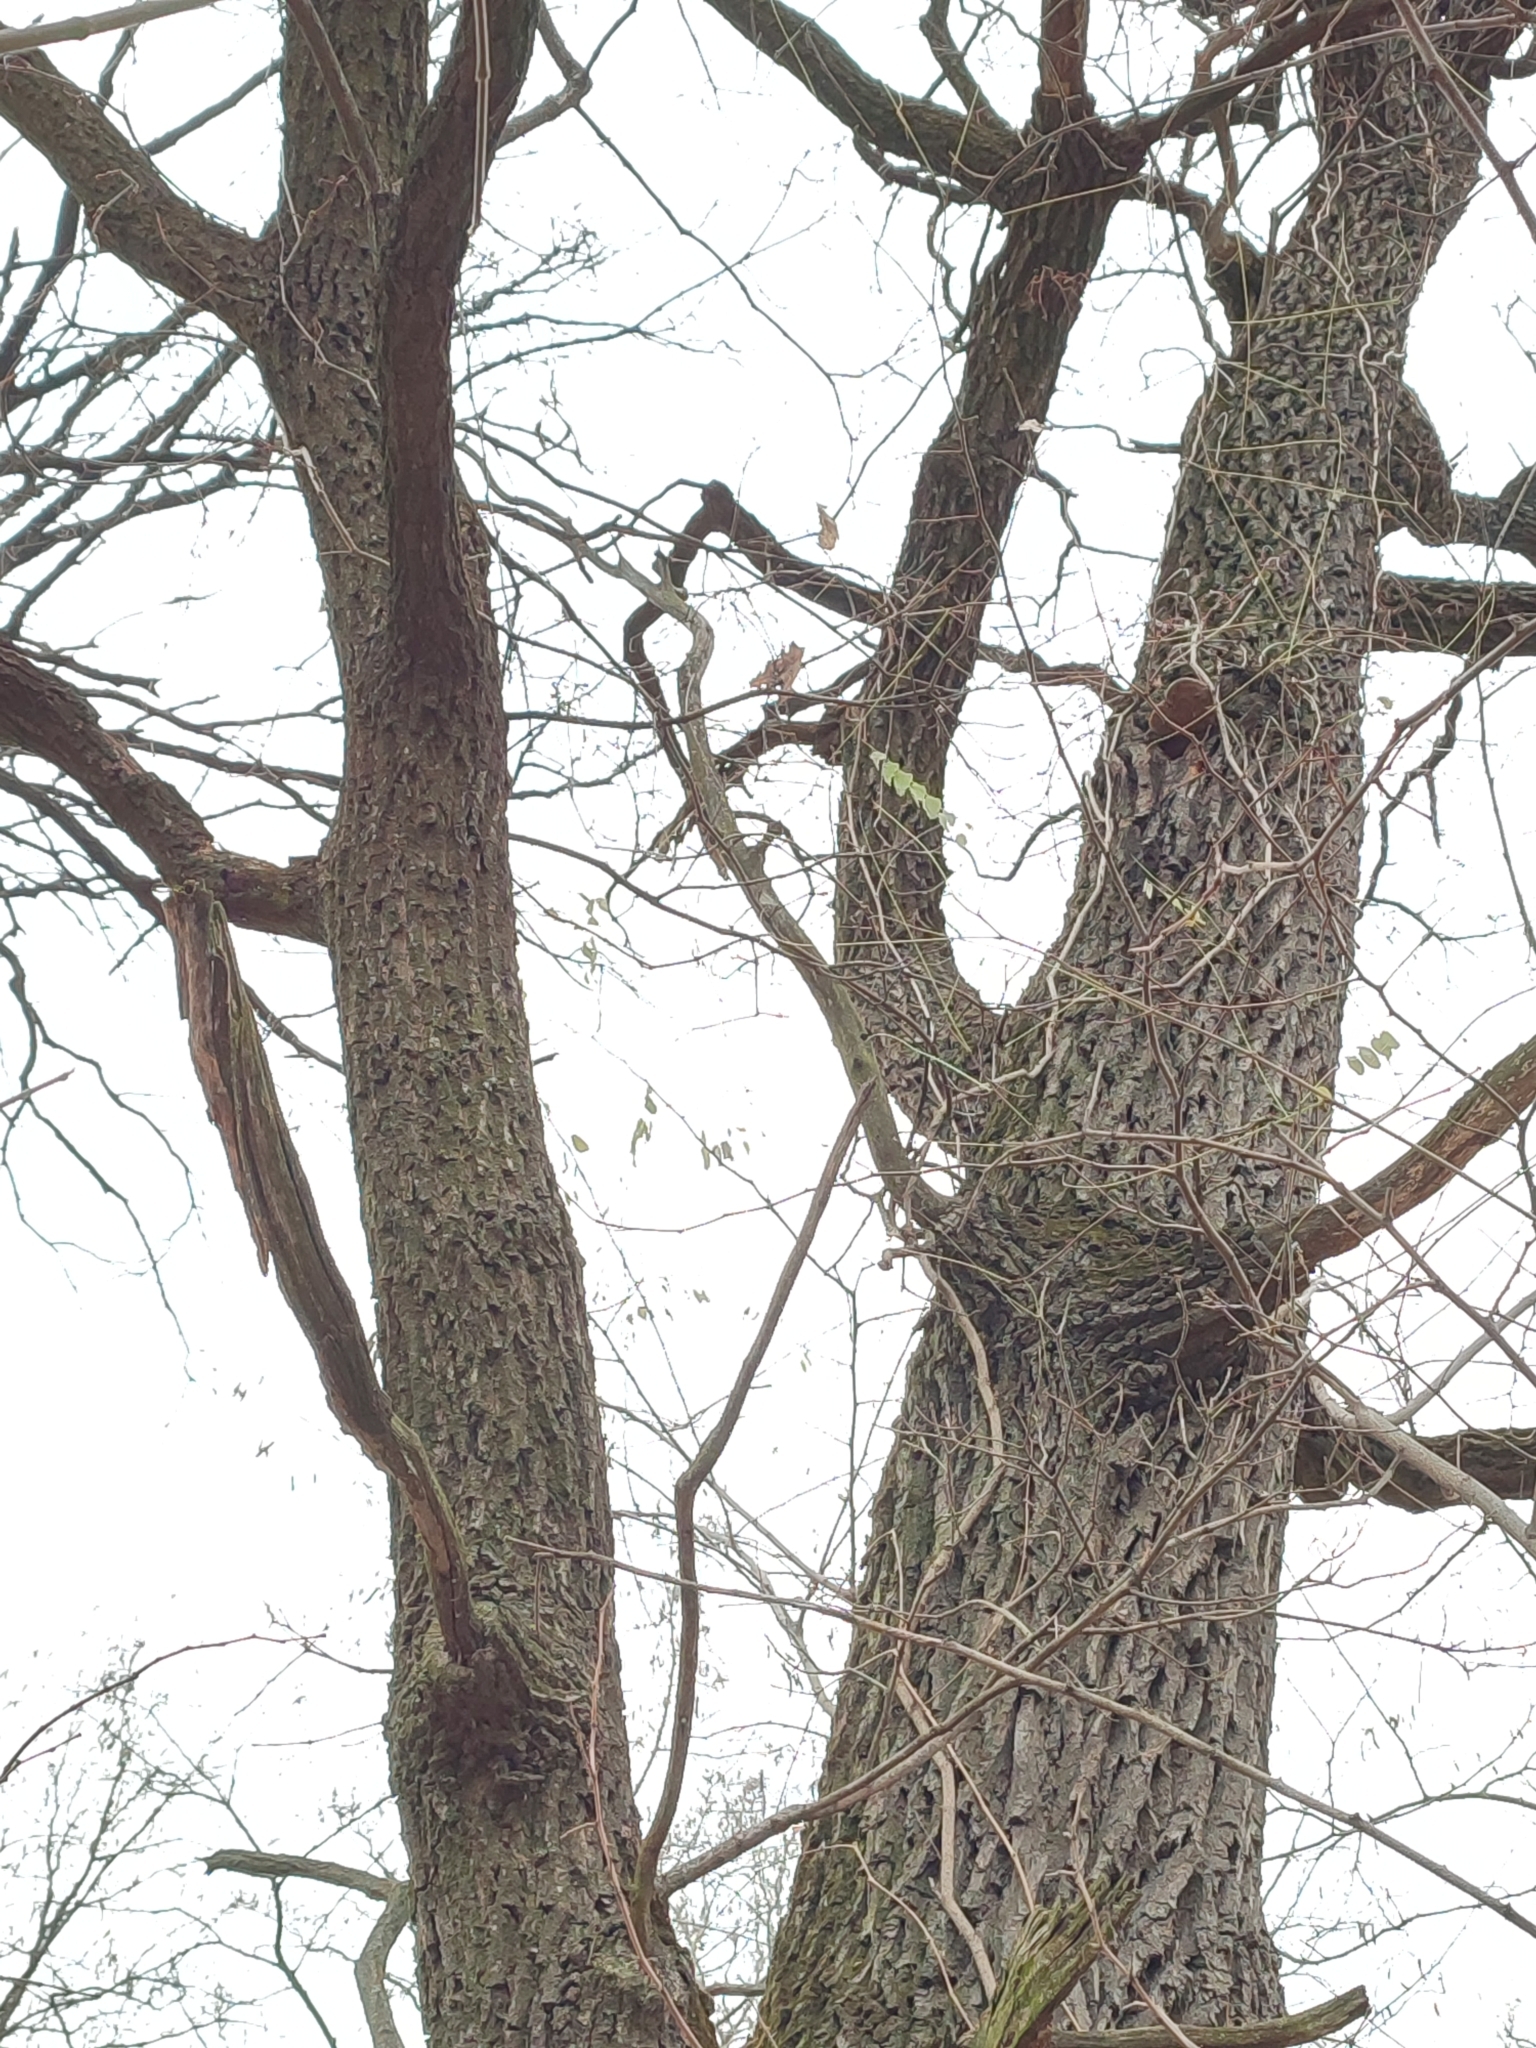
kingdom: Plantae
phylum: Tracheophyta
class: Magnoliopsida
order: Fagales
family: Fagaceae
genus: Quercus
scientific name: Quercus robur
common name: Pedunculate oak
